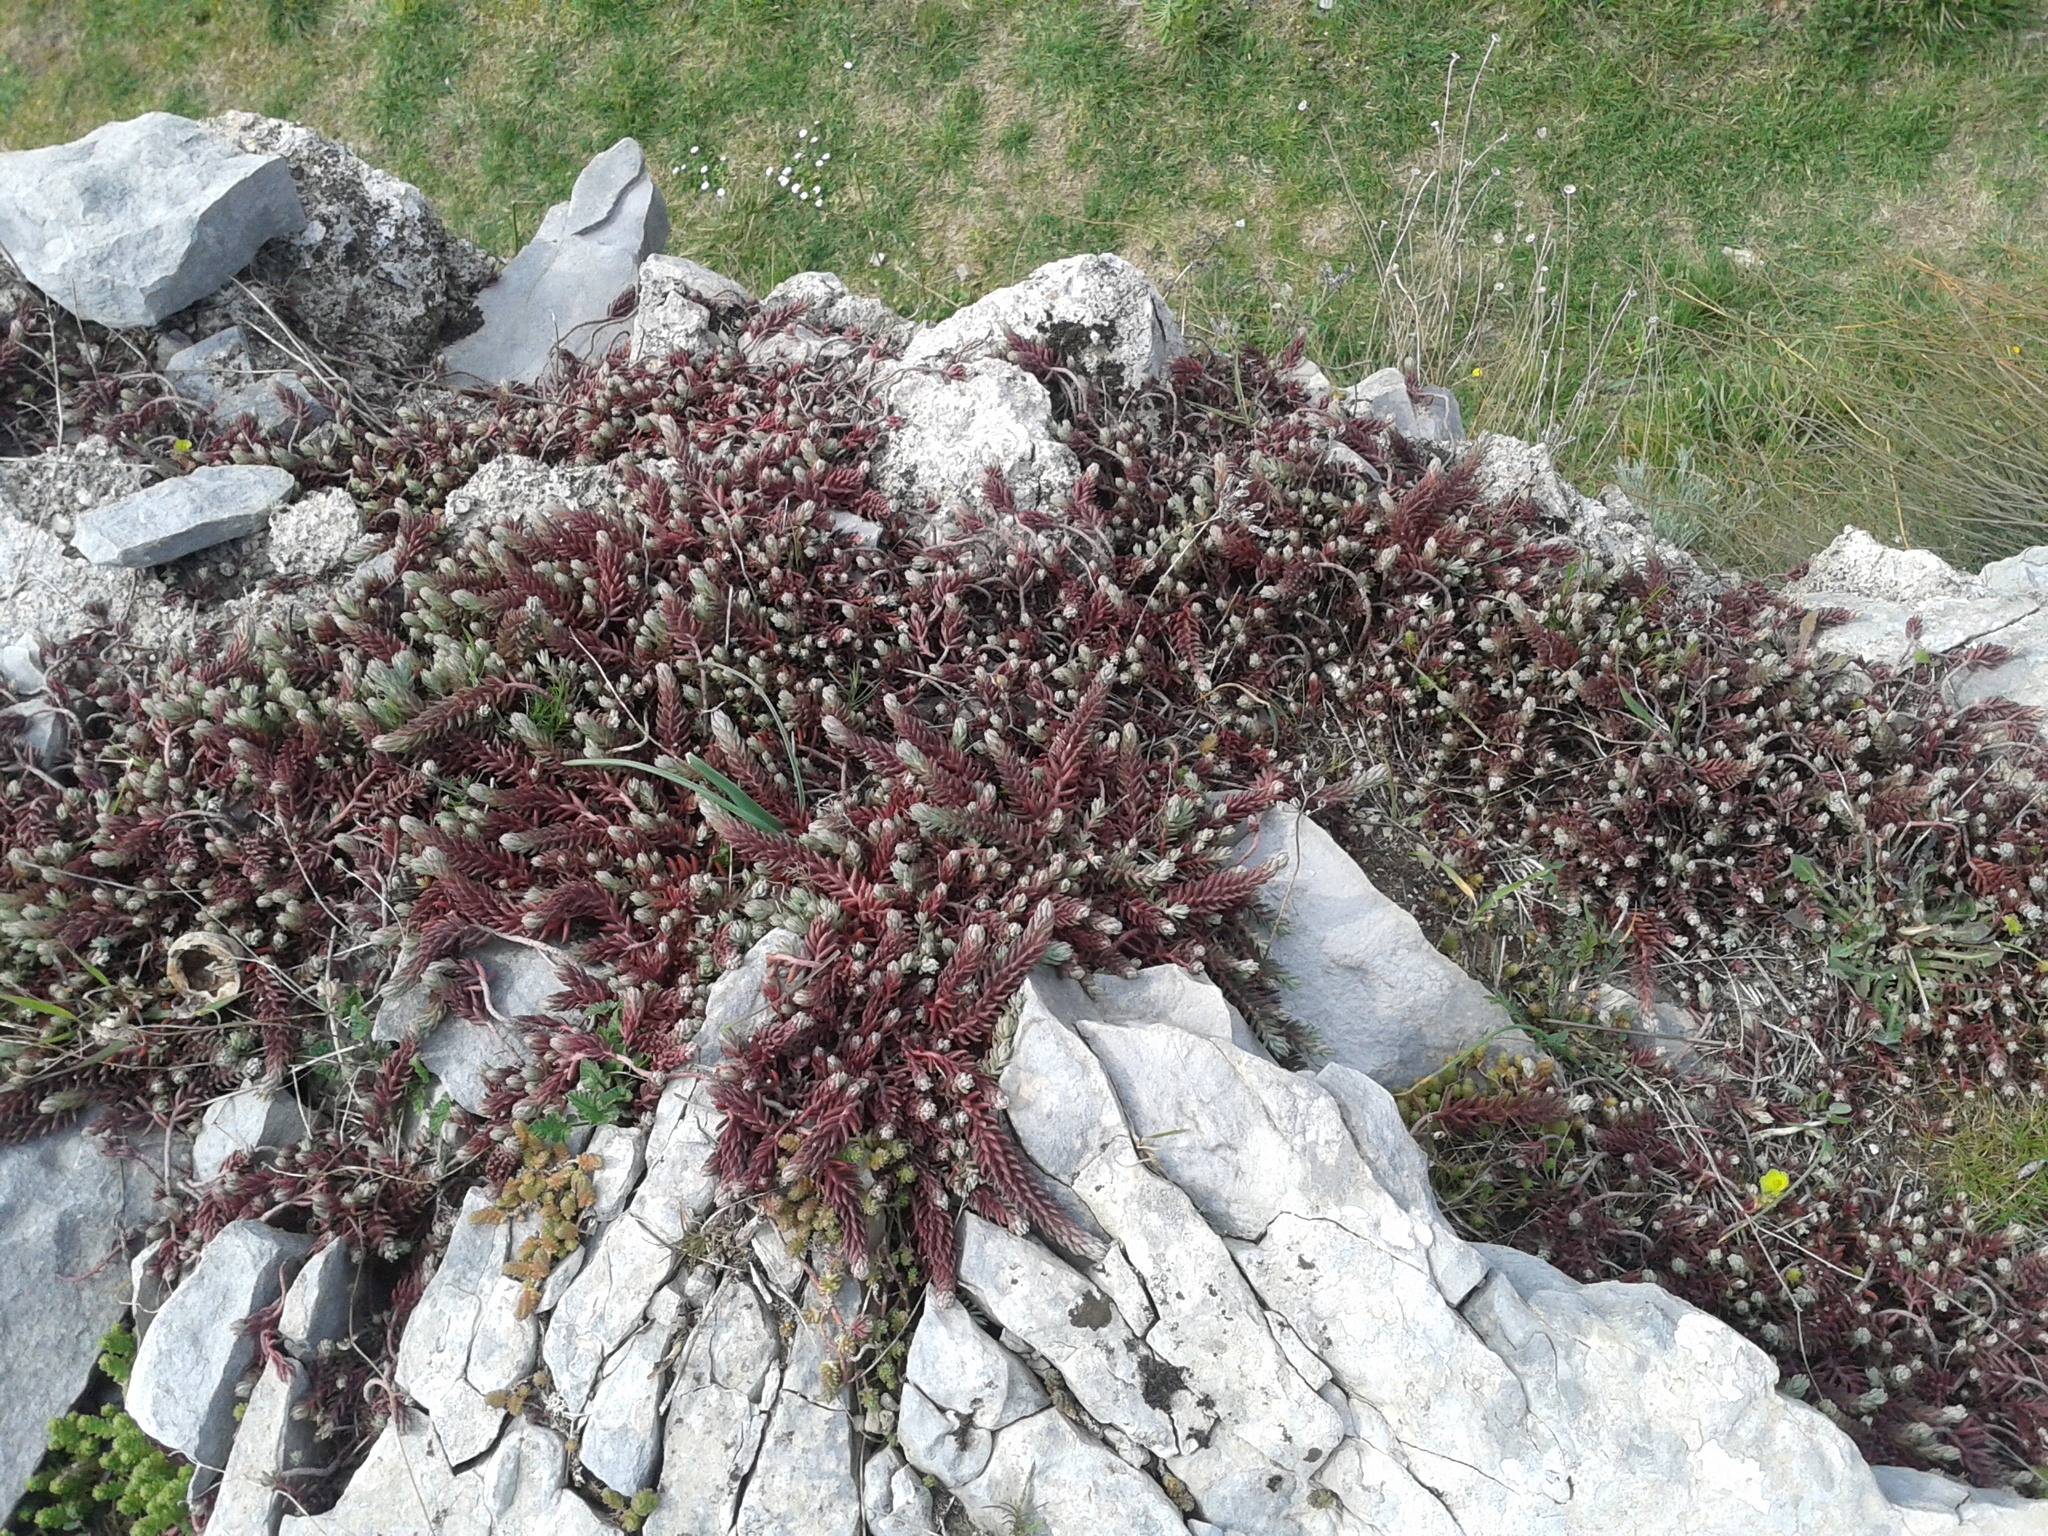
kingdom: Plantae
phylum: Tracheophyta
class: Magnoliopsida
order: Saxifragales
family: Crassulaceae
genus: Petrosedum
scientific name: Petrosedum ochroleucum
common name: European stonecrop
